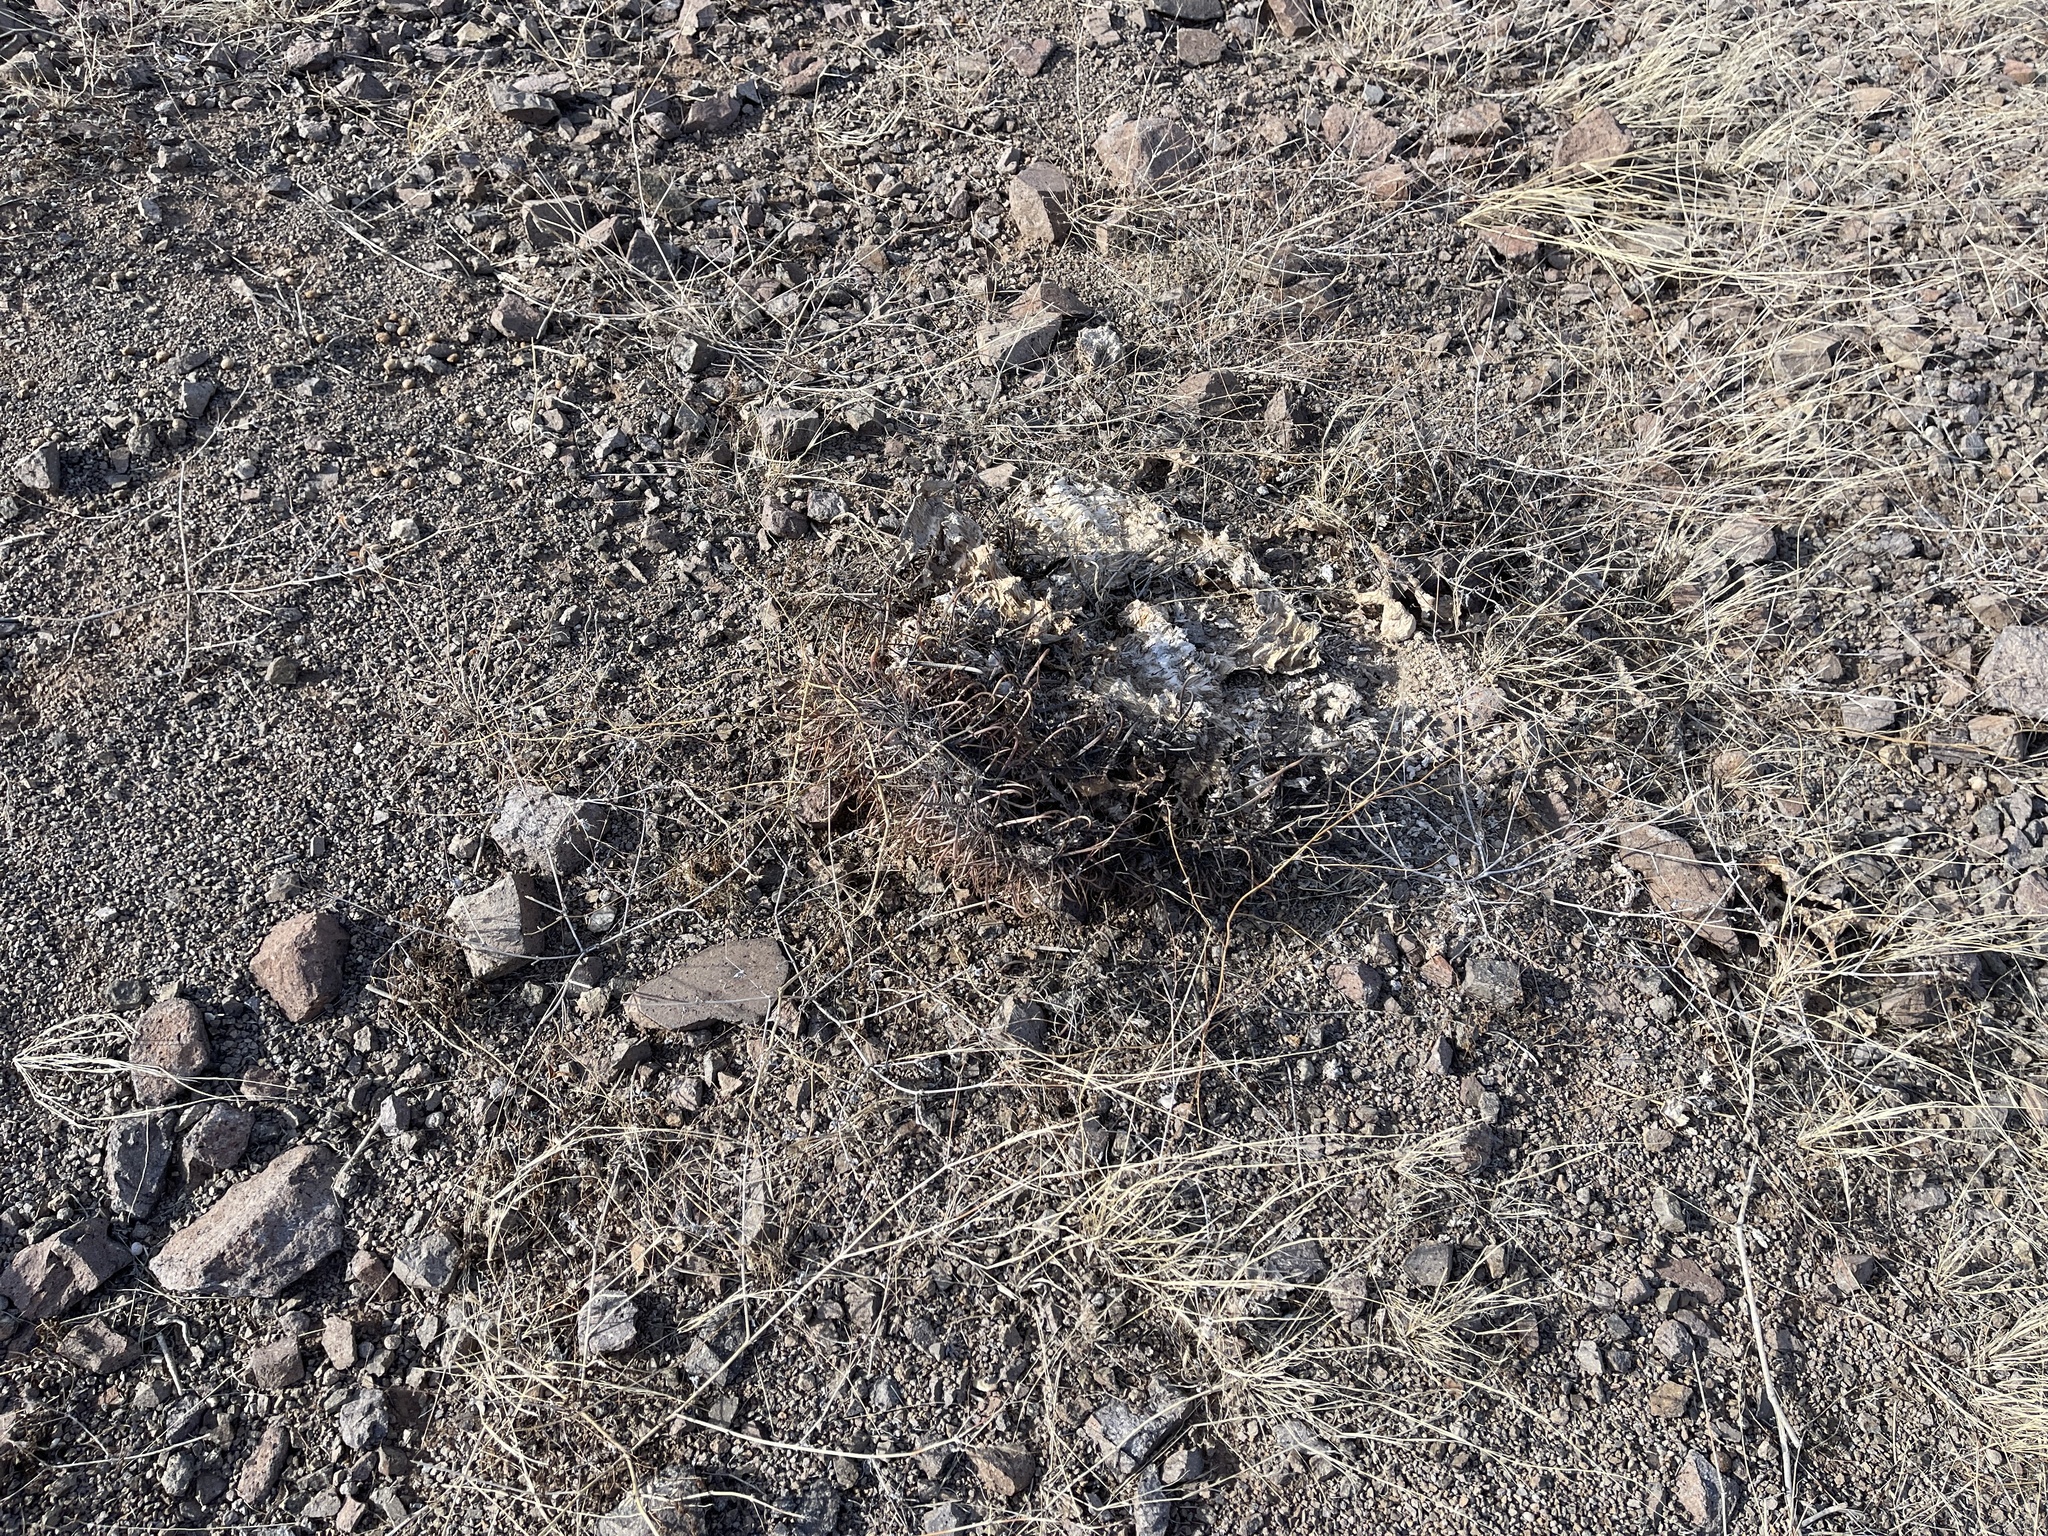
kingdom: Plantae
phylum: Tracheophyta
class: Magnoliopsida
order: Caryophyllales
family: Cactaceae
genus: Ferocactus
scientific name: Ferocactus wislizeni
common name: Candy barrel cactus
